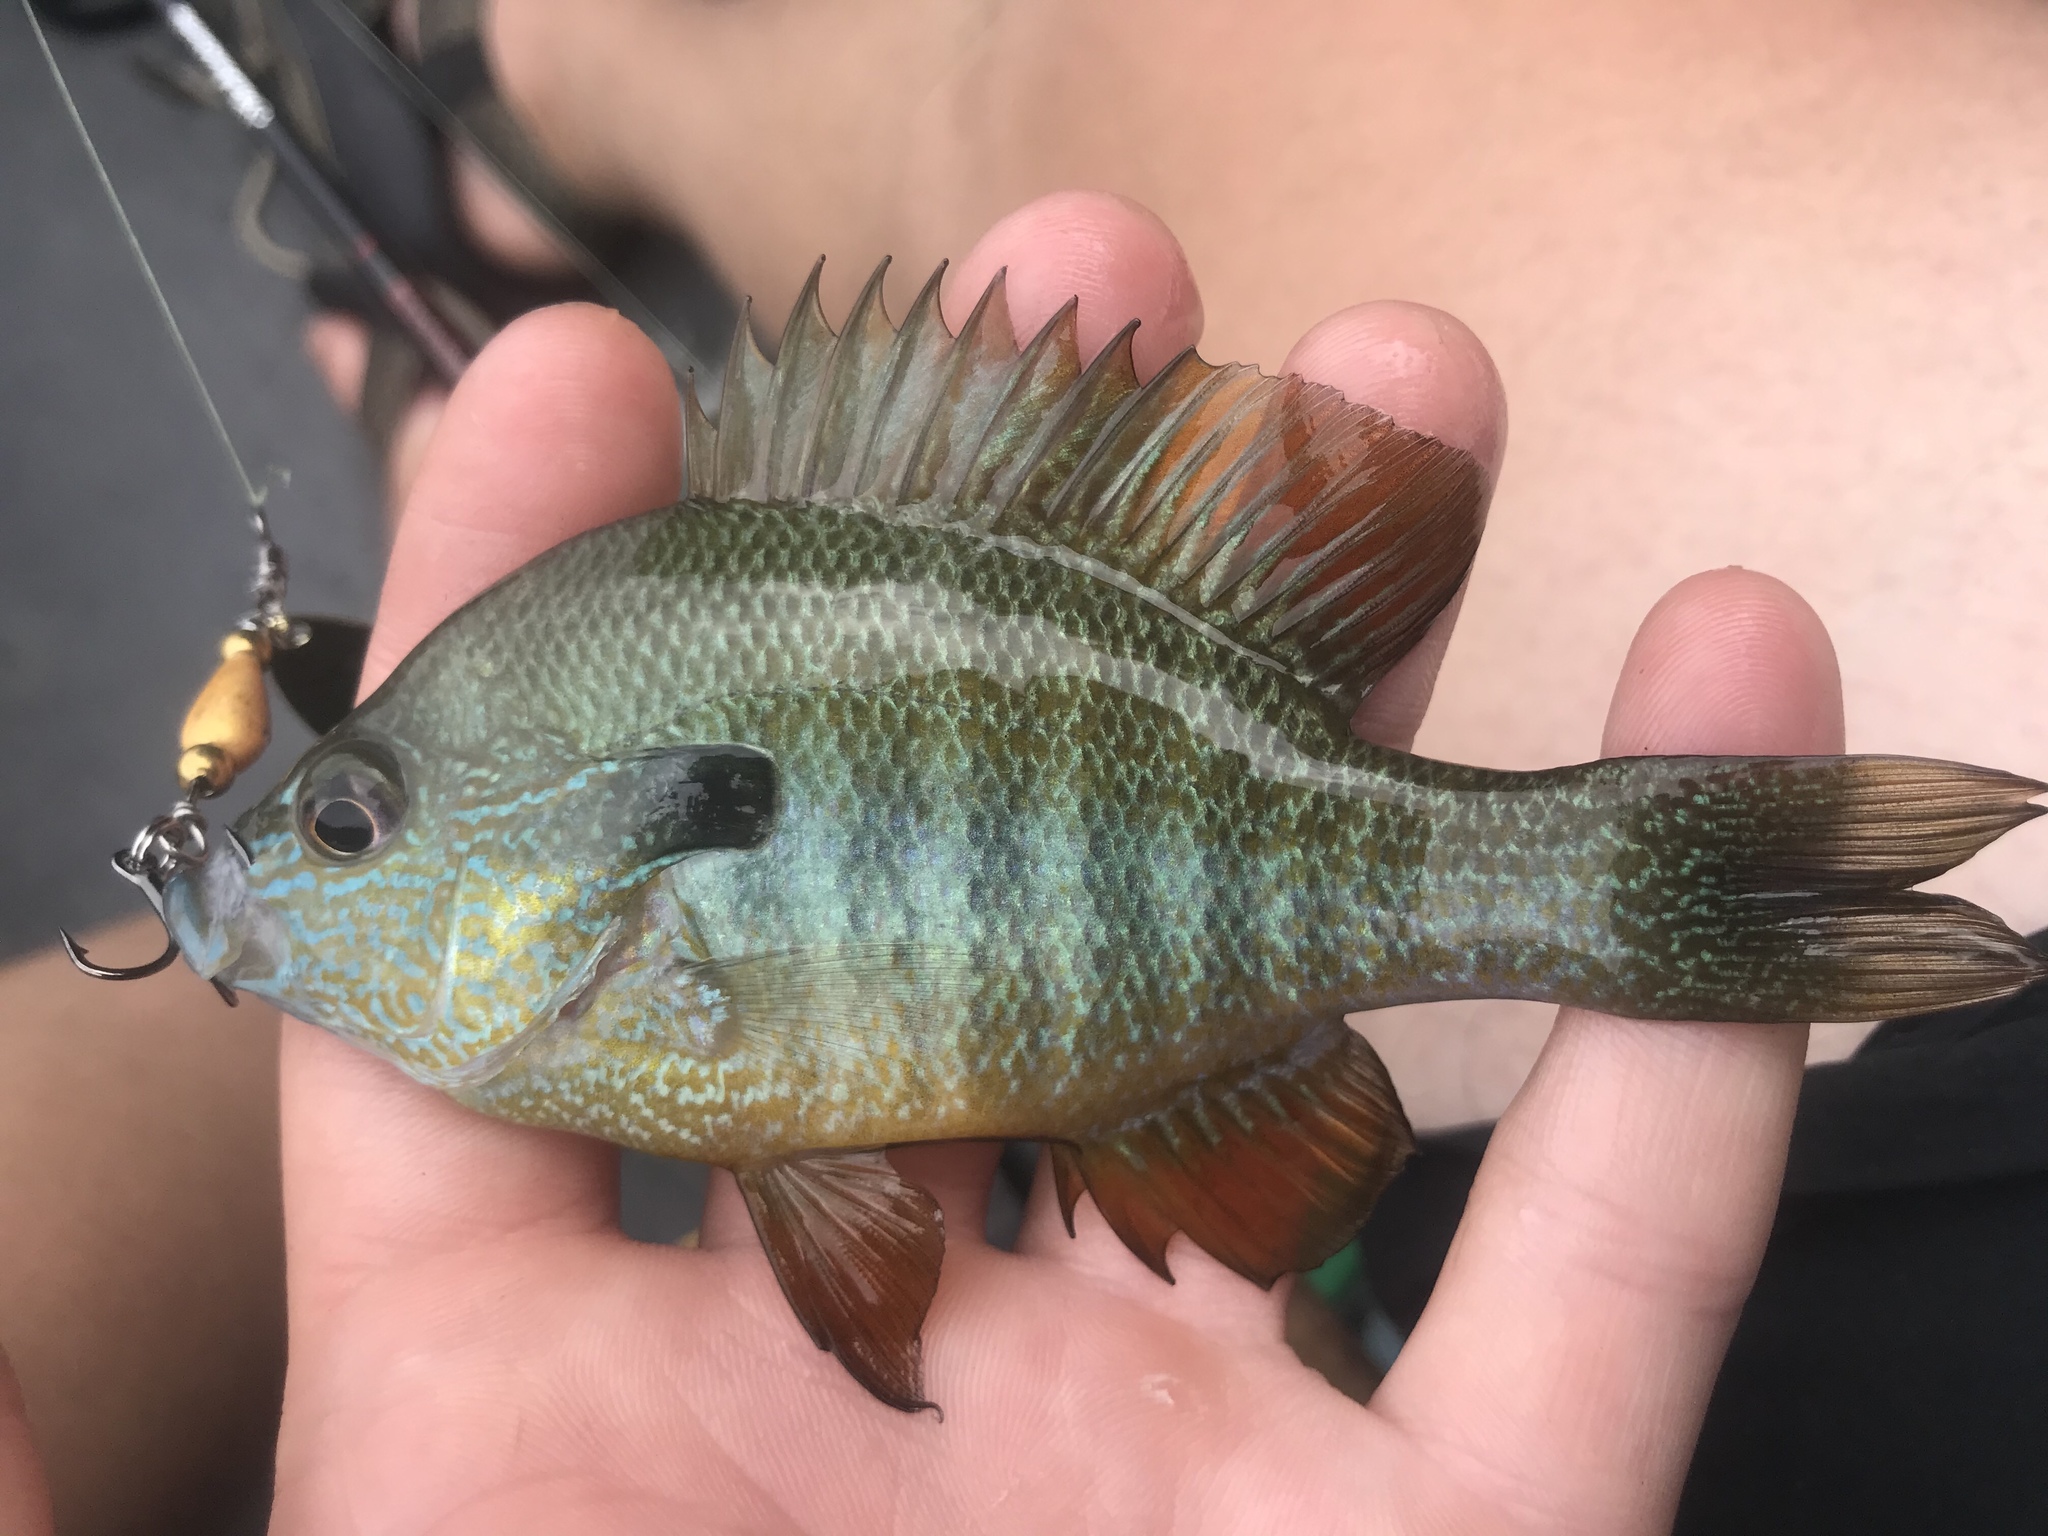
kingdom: Animalia
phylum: Chordata
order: Perciformes
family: Centrarchidae
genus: Lepomis
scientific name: Lepomis megalotis
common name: Longear sunfish
